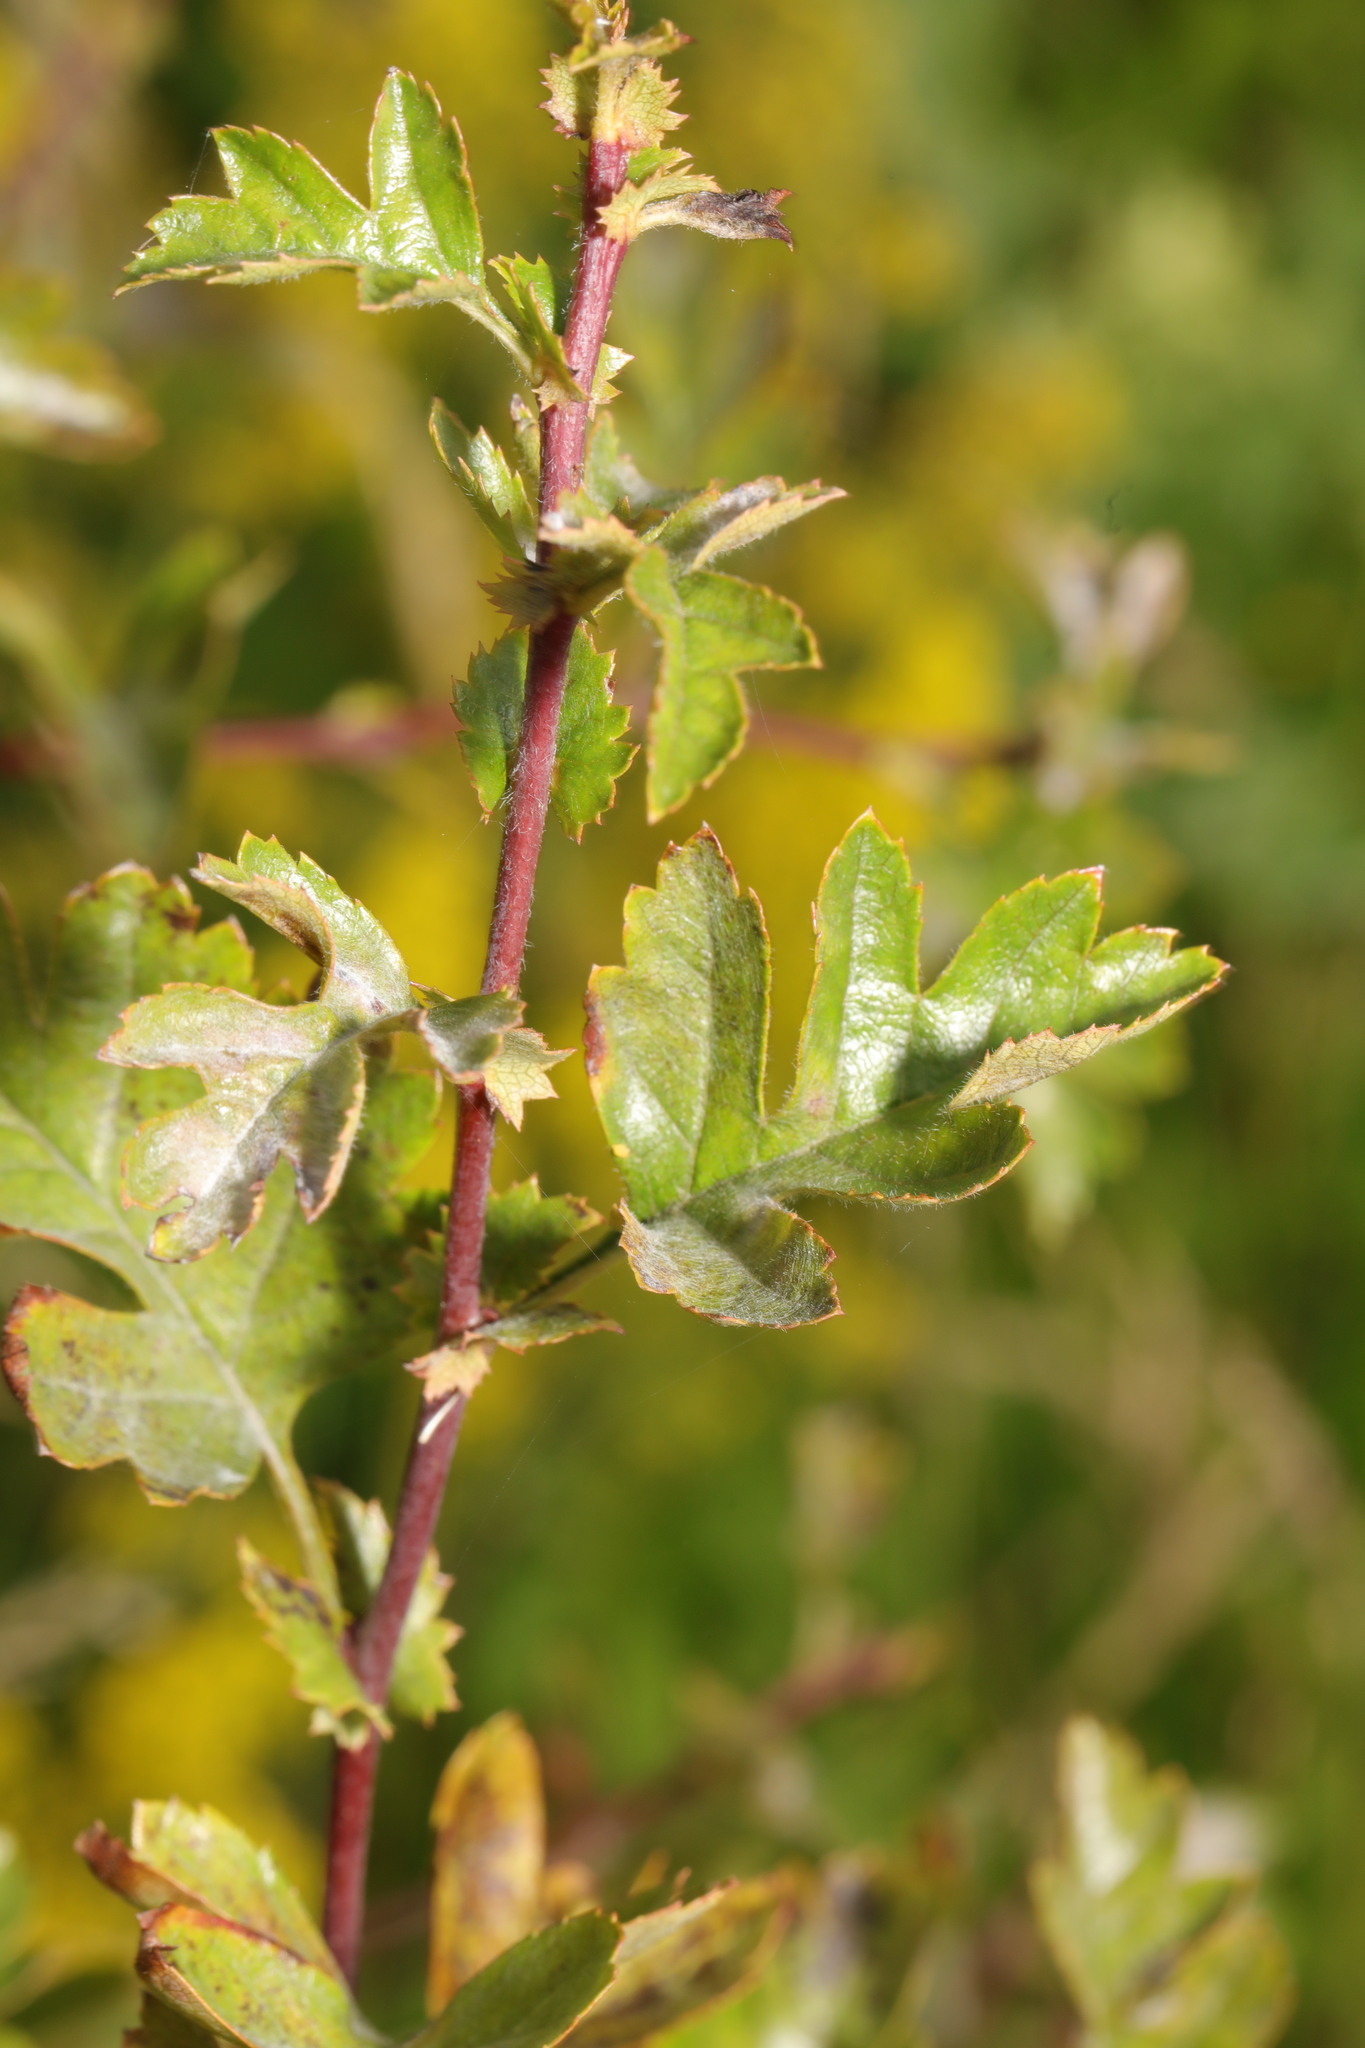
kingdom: Fungi
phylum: Ascomycota
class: Leotiomycetes
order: Helotiales
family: Erysiphaceae
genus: Podosphaera
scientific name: Podosphaera clandestina
